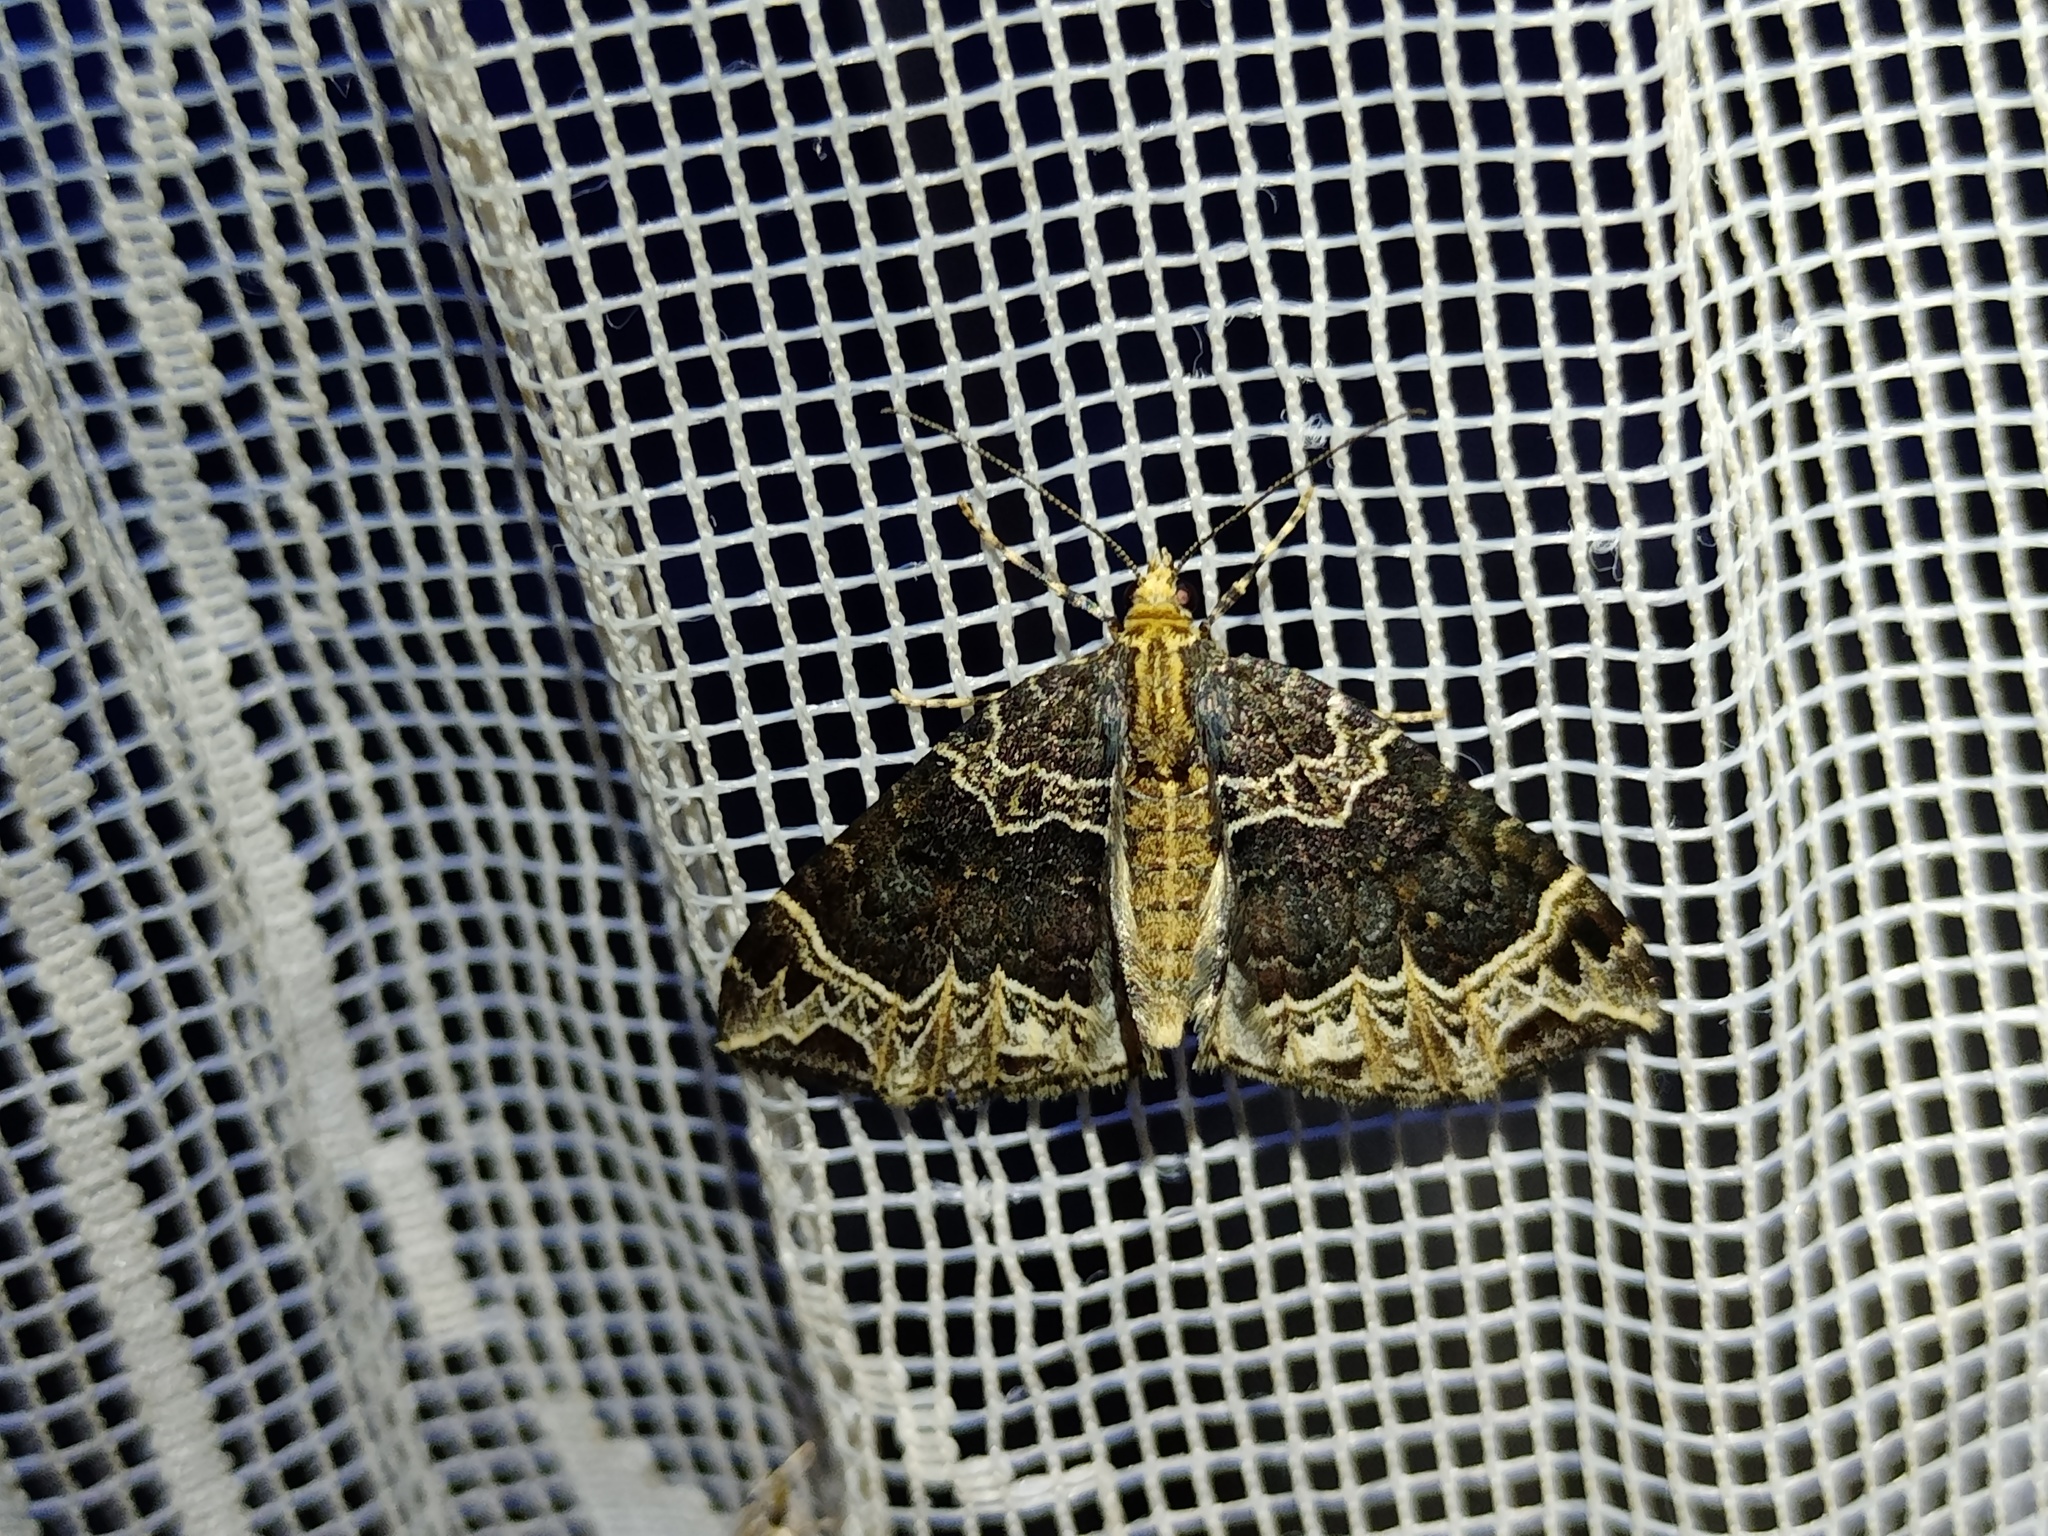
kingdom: Animalia
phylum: Arthropoda
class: Insecta
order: Lepidoptera
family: Geometridae
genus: Ecliptopera
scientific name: Ecliptopera silaceata
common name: Small phoenix
